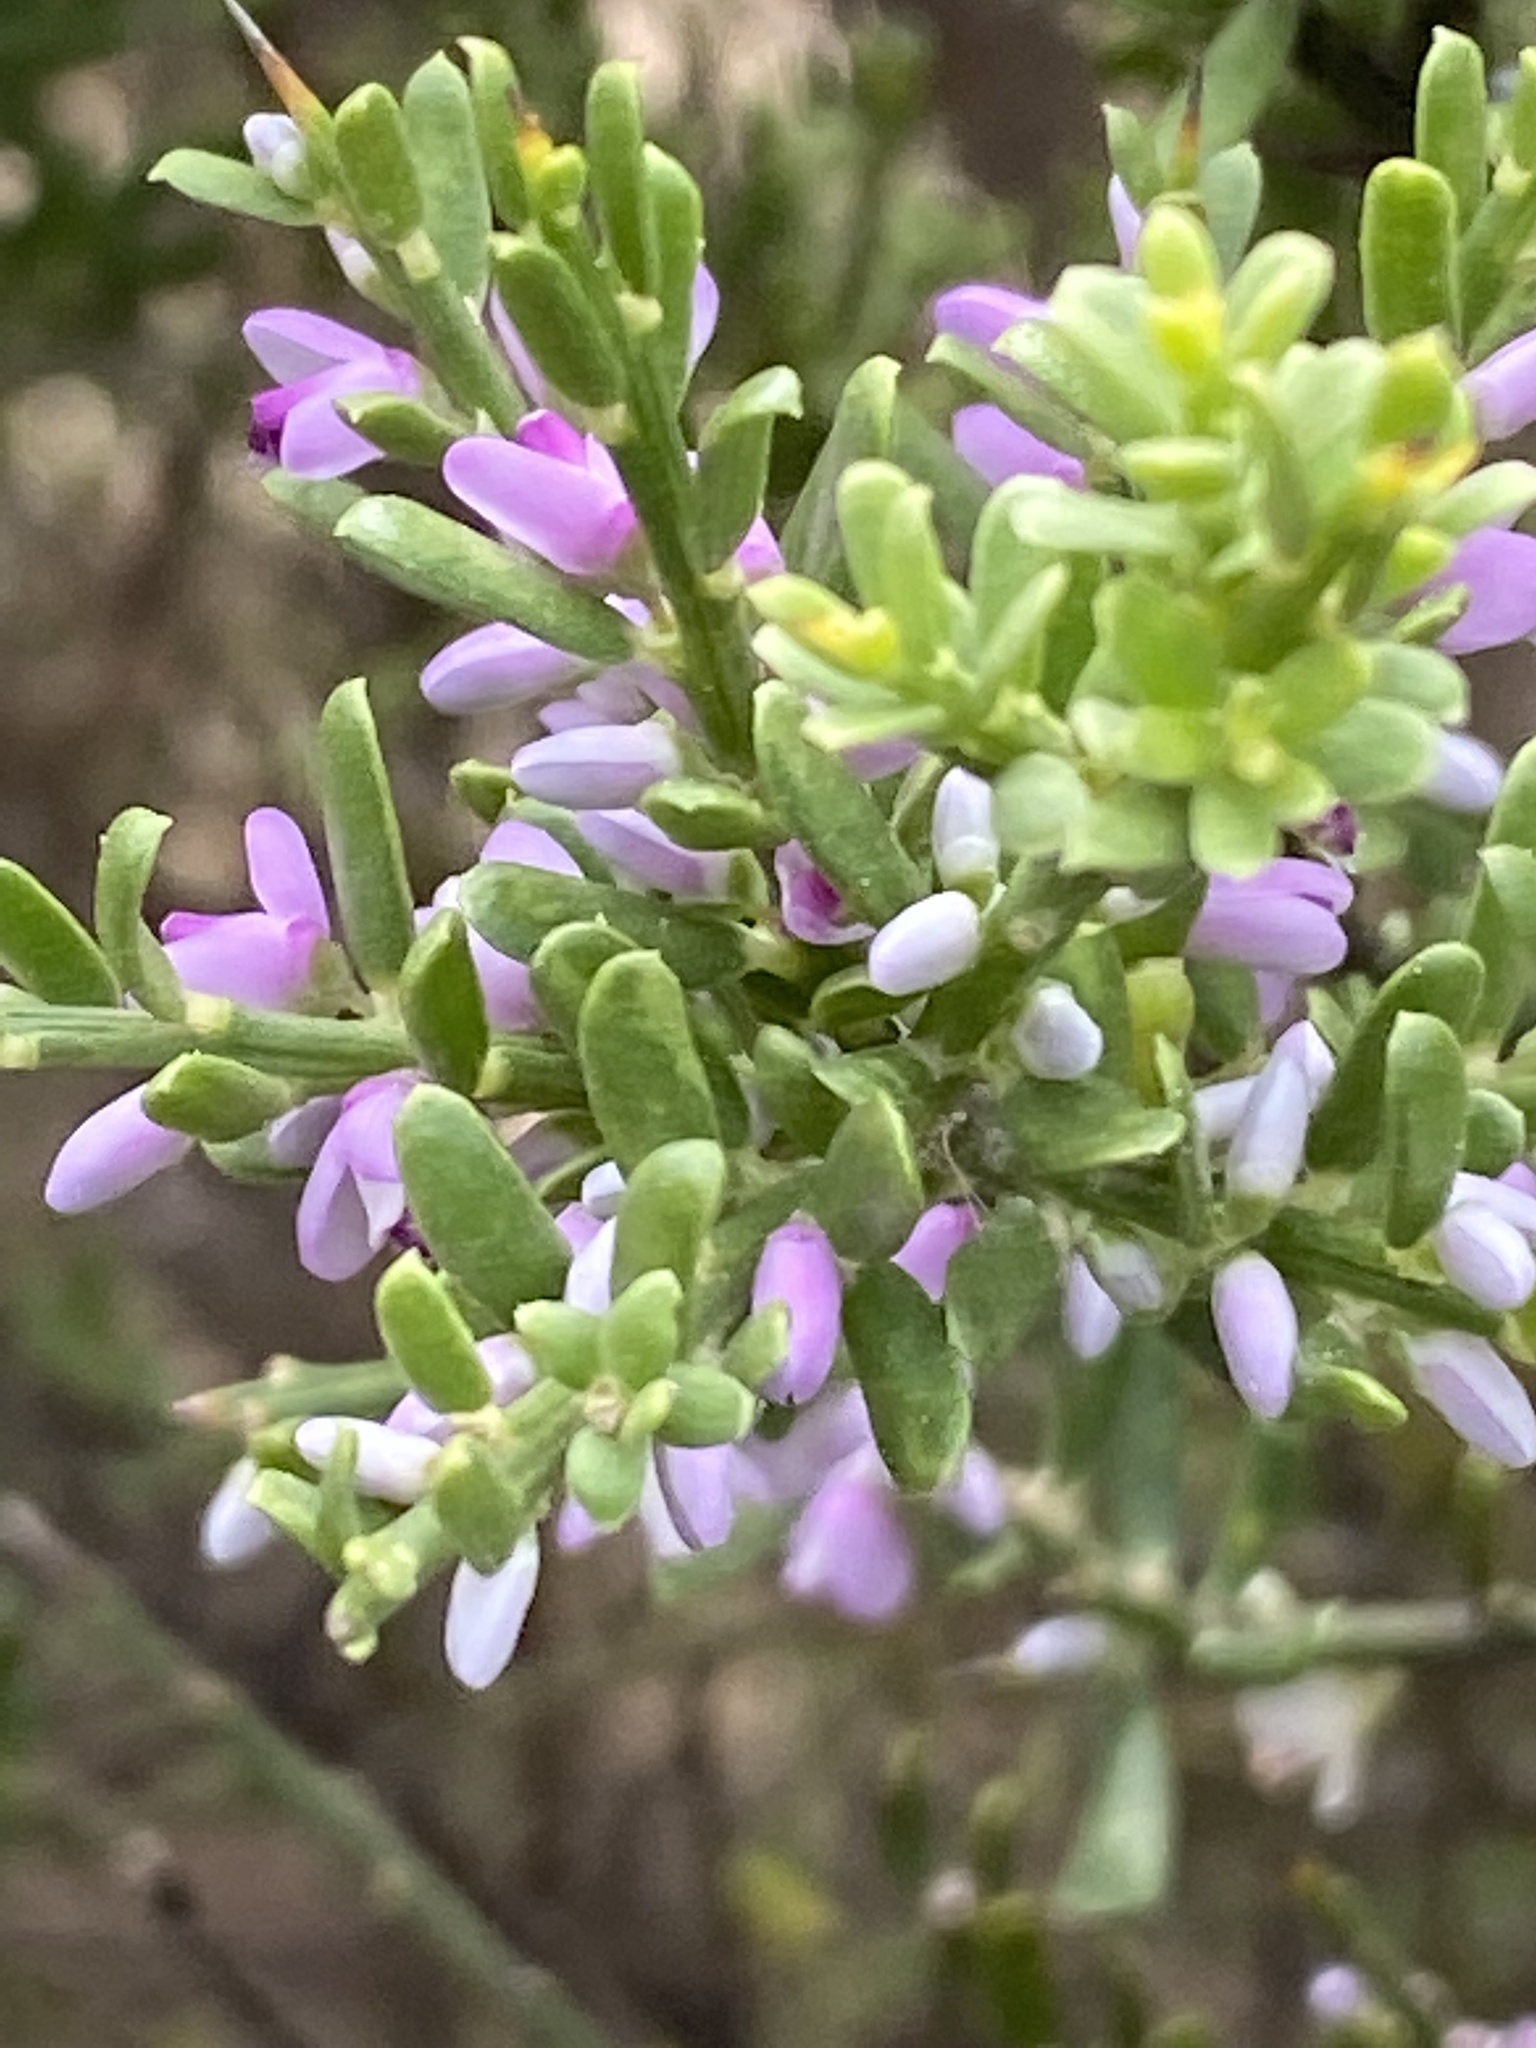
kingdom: Plantae
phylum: Tracheophyta
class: Magnoliopsida
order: Fabales
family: Polygalaceae
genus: Muraltia
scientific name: Muraltia spinosa
